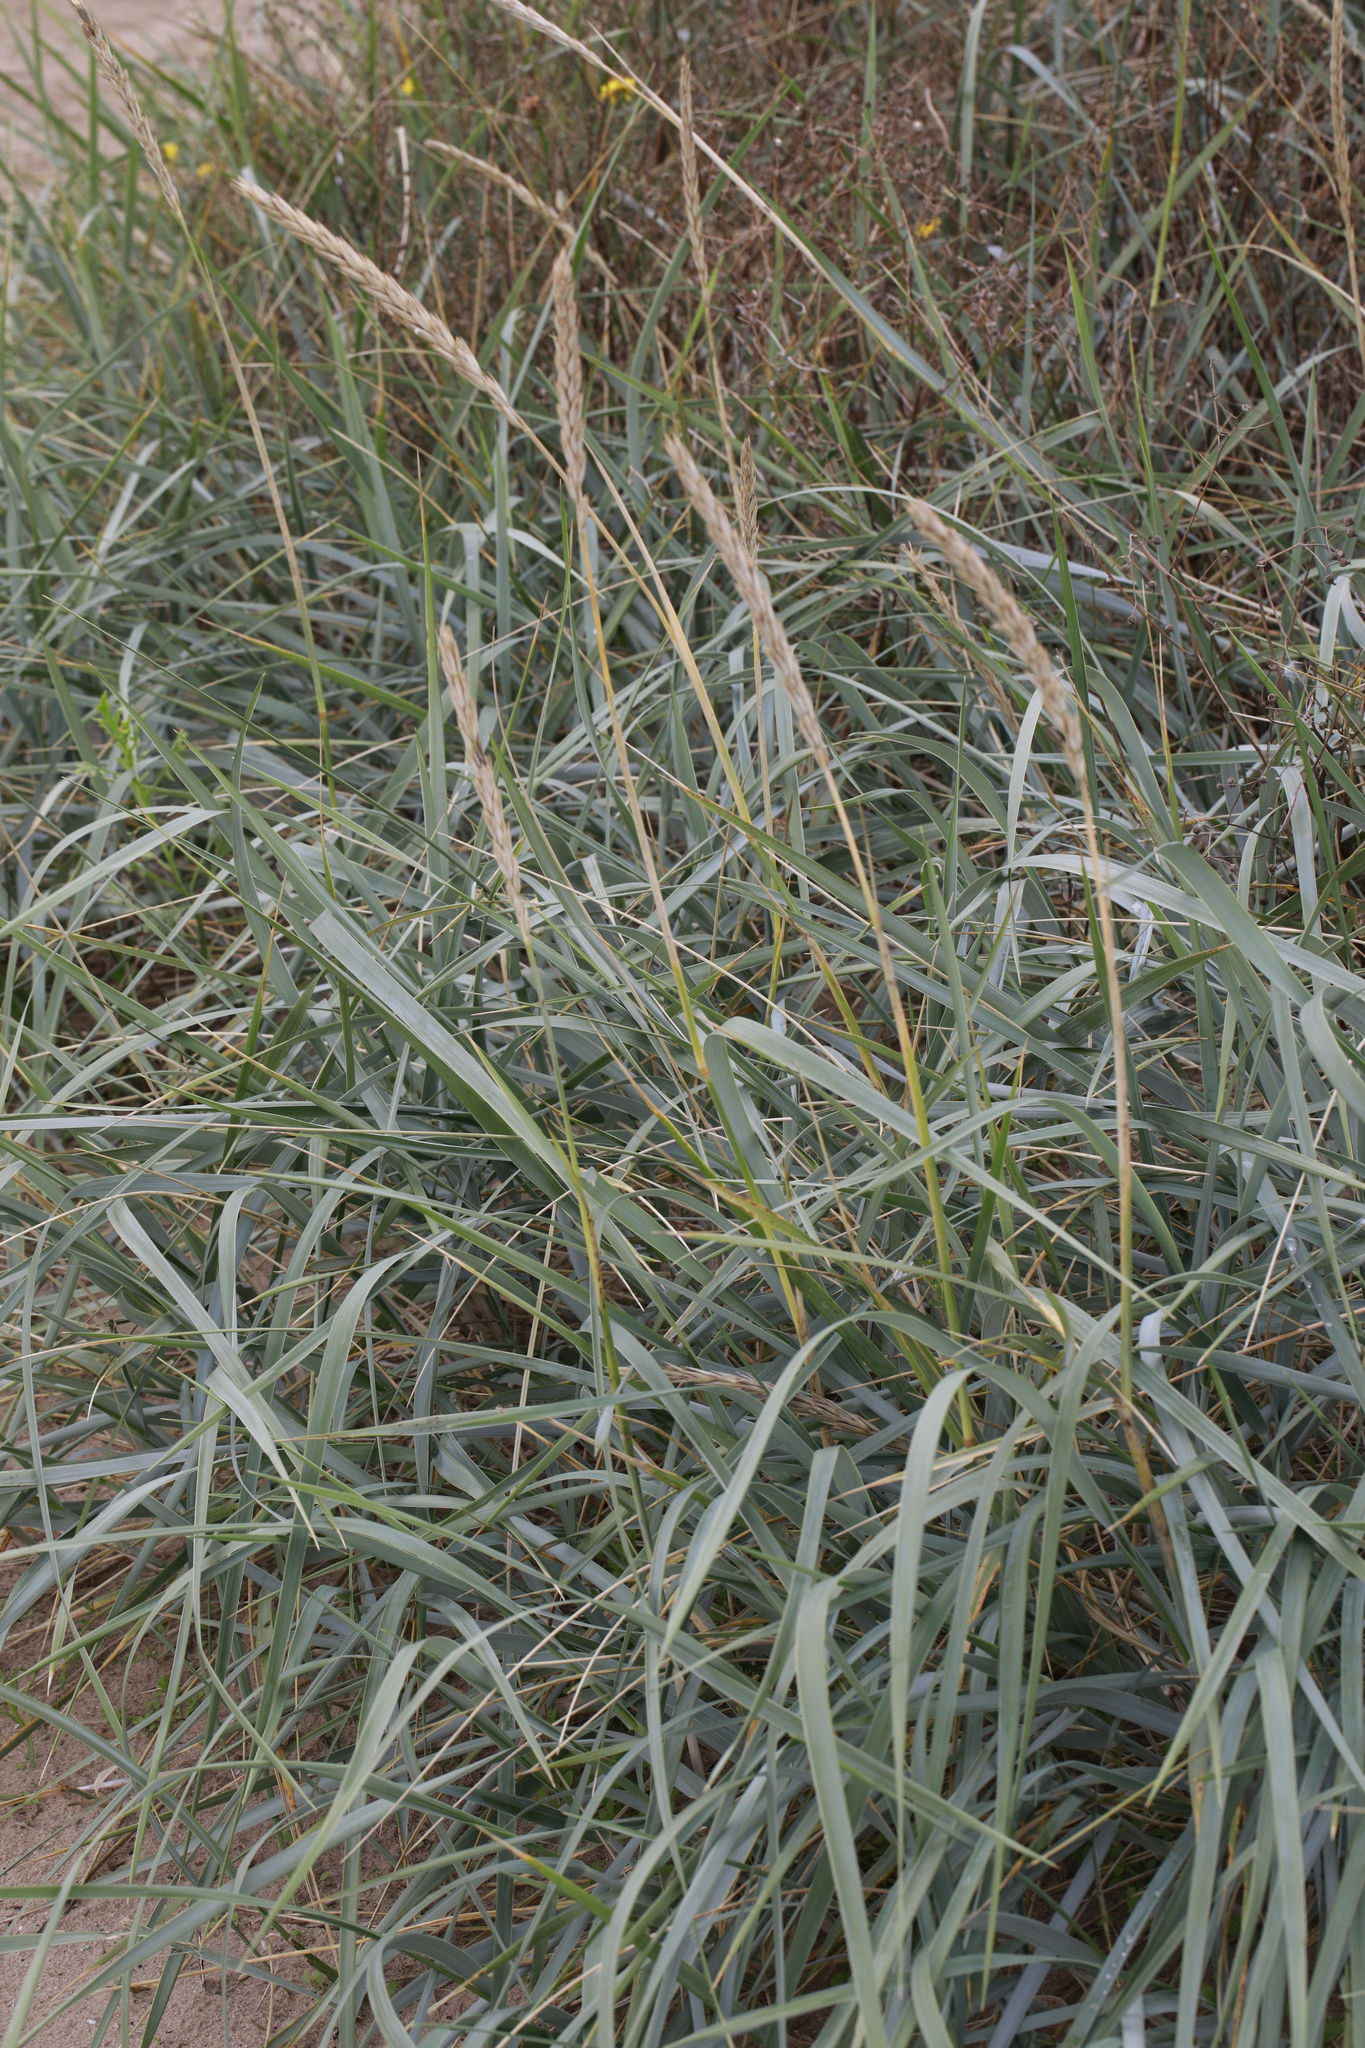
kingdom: Plantae
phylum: Tracheophyta
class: Liliopsida
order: Poales
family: Poaceae
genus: Leymus
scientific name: Leymus arenarius
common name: Lyme-grass
